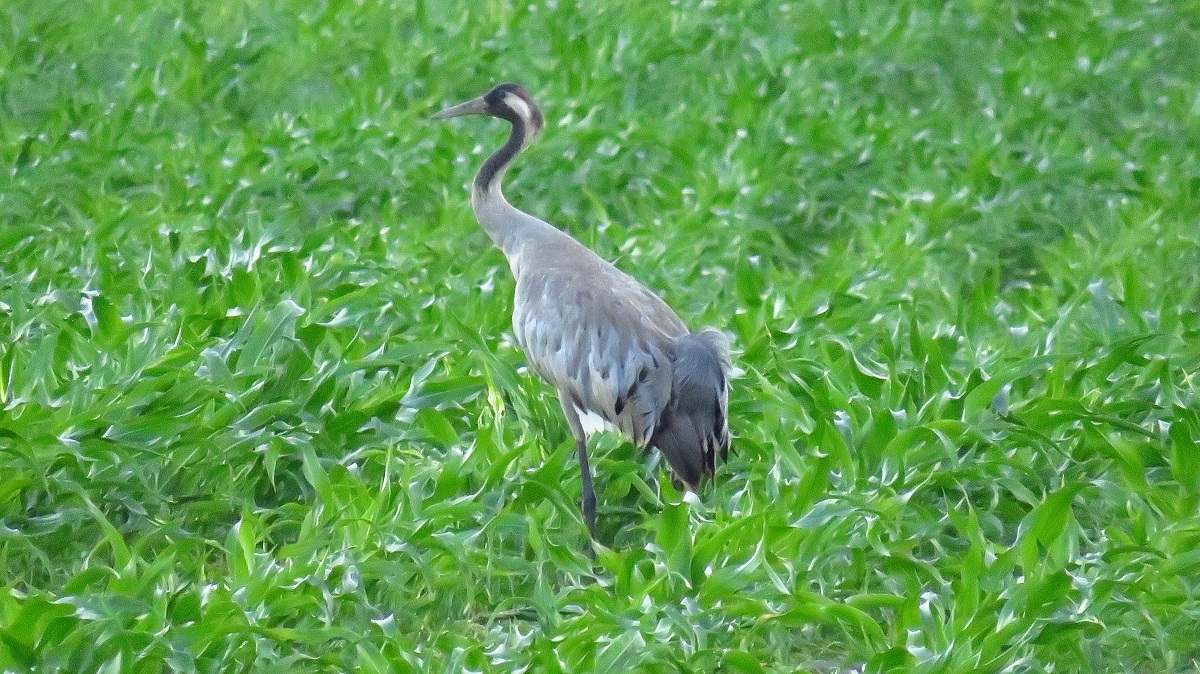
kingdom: Animalia
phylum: Chordata
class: Aves
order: Gruiformes
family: Gruidae
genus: Grus
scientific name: Grus grus
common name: Common crane
